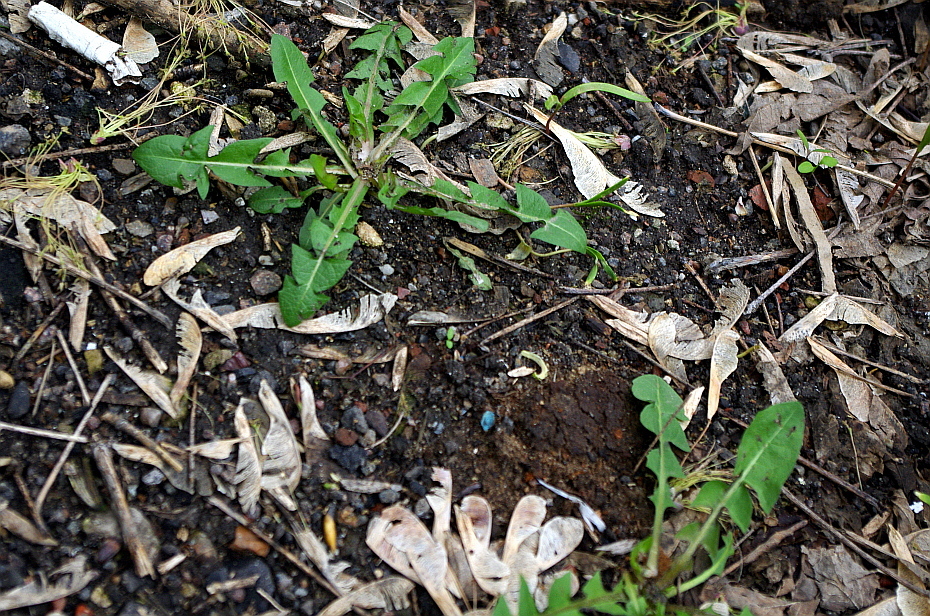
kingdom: Plantae
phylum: Tracheophyta
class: Magnoliopsida
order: Asterales
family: Asteraceae
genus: Taraxacum
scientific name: Taraxacum officinale
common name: Common dandelion
